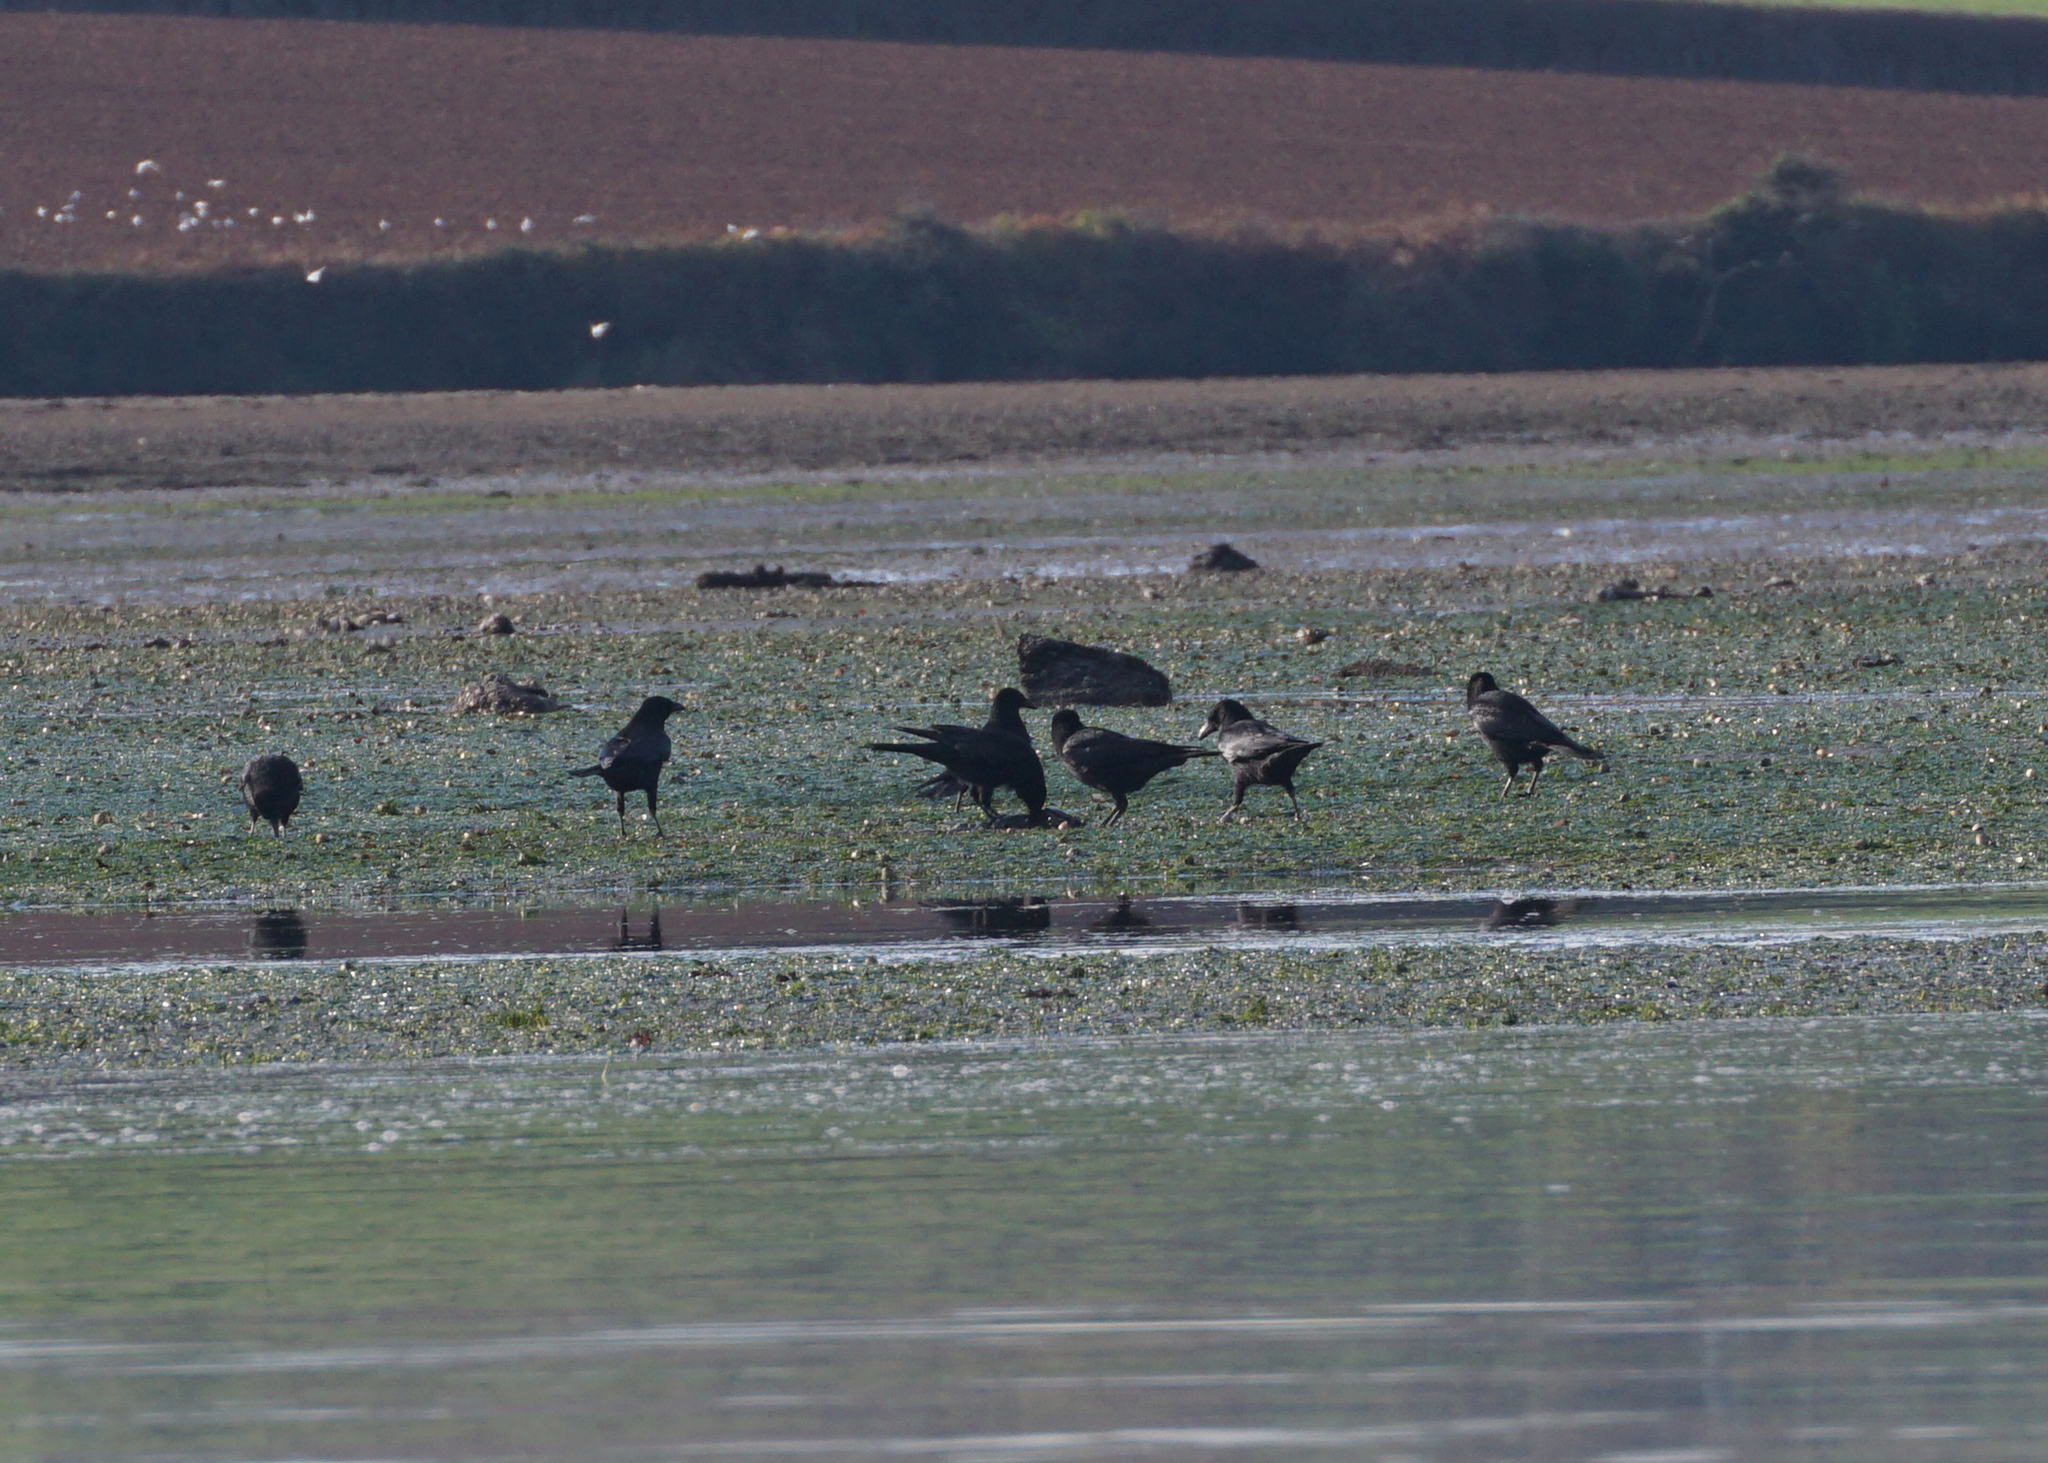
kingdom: Animalia
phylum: Chordata
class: Aves
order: Passeriformes
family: Corvidae
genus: Corvus
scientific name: Corvus corone
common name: Carrion crow
